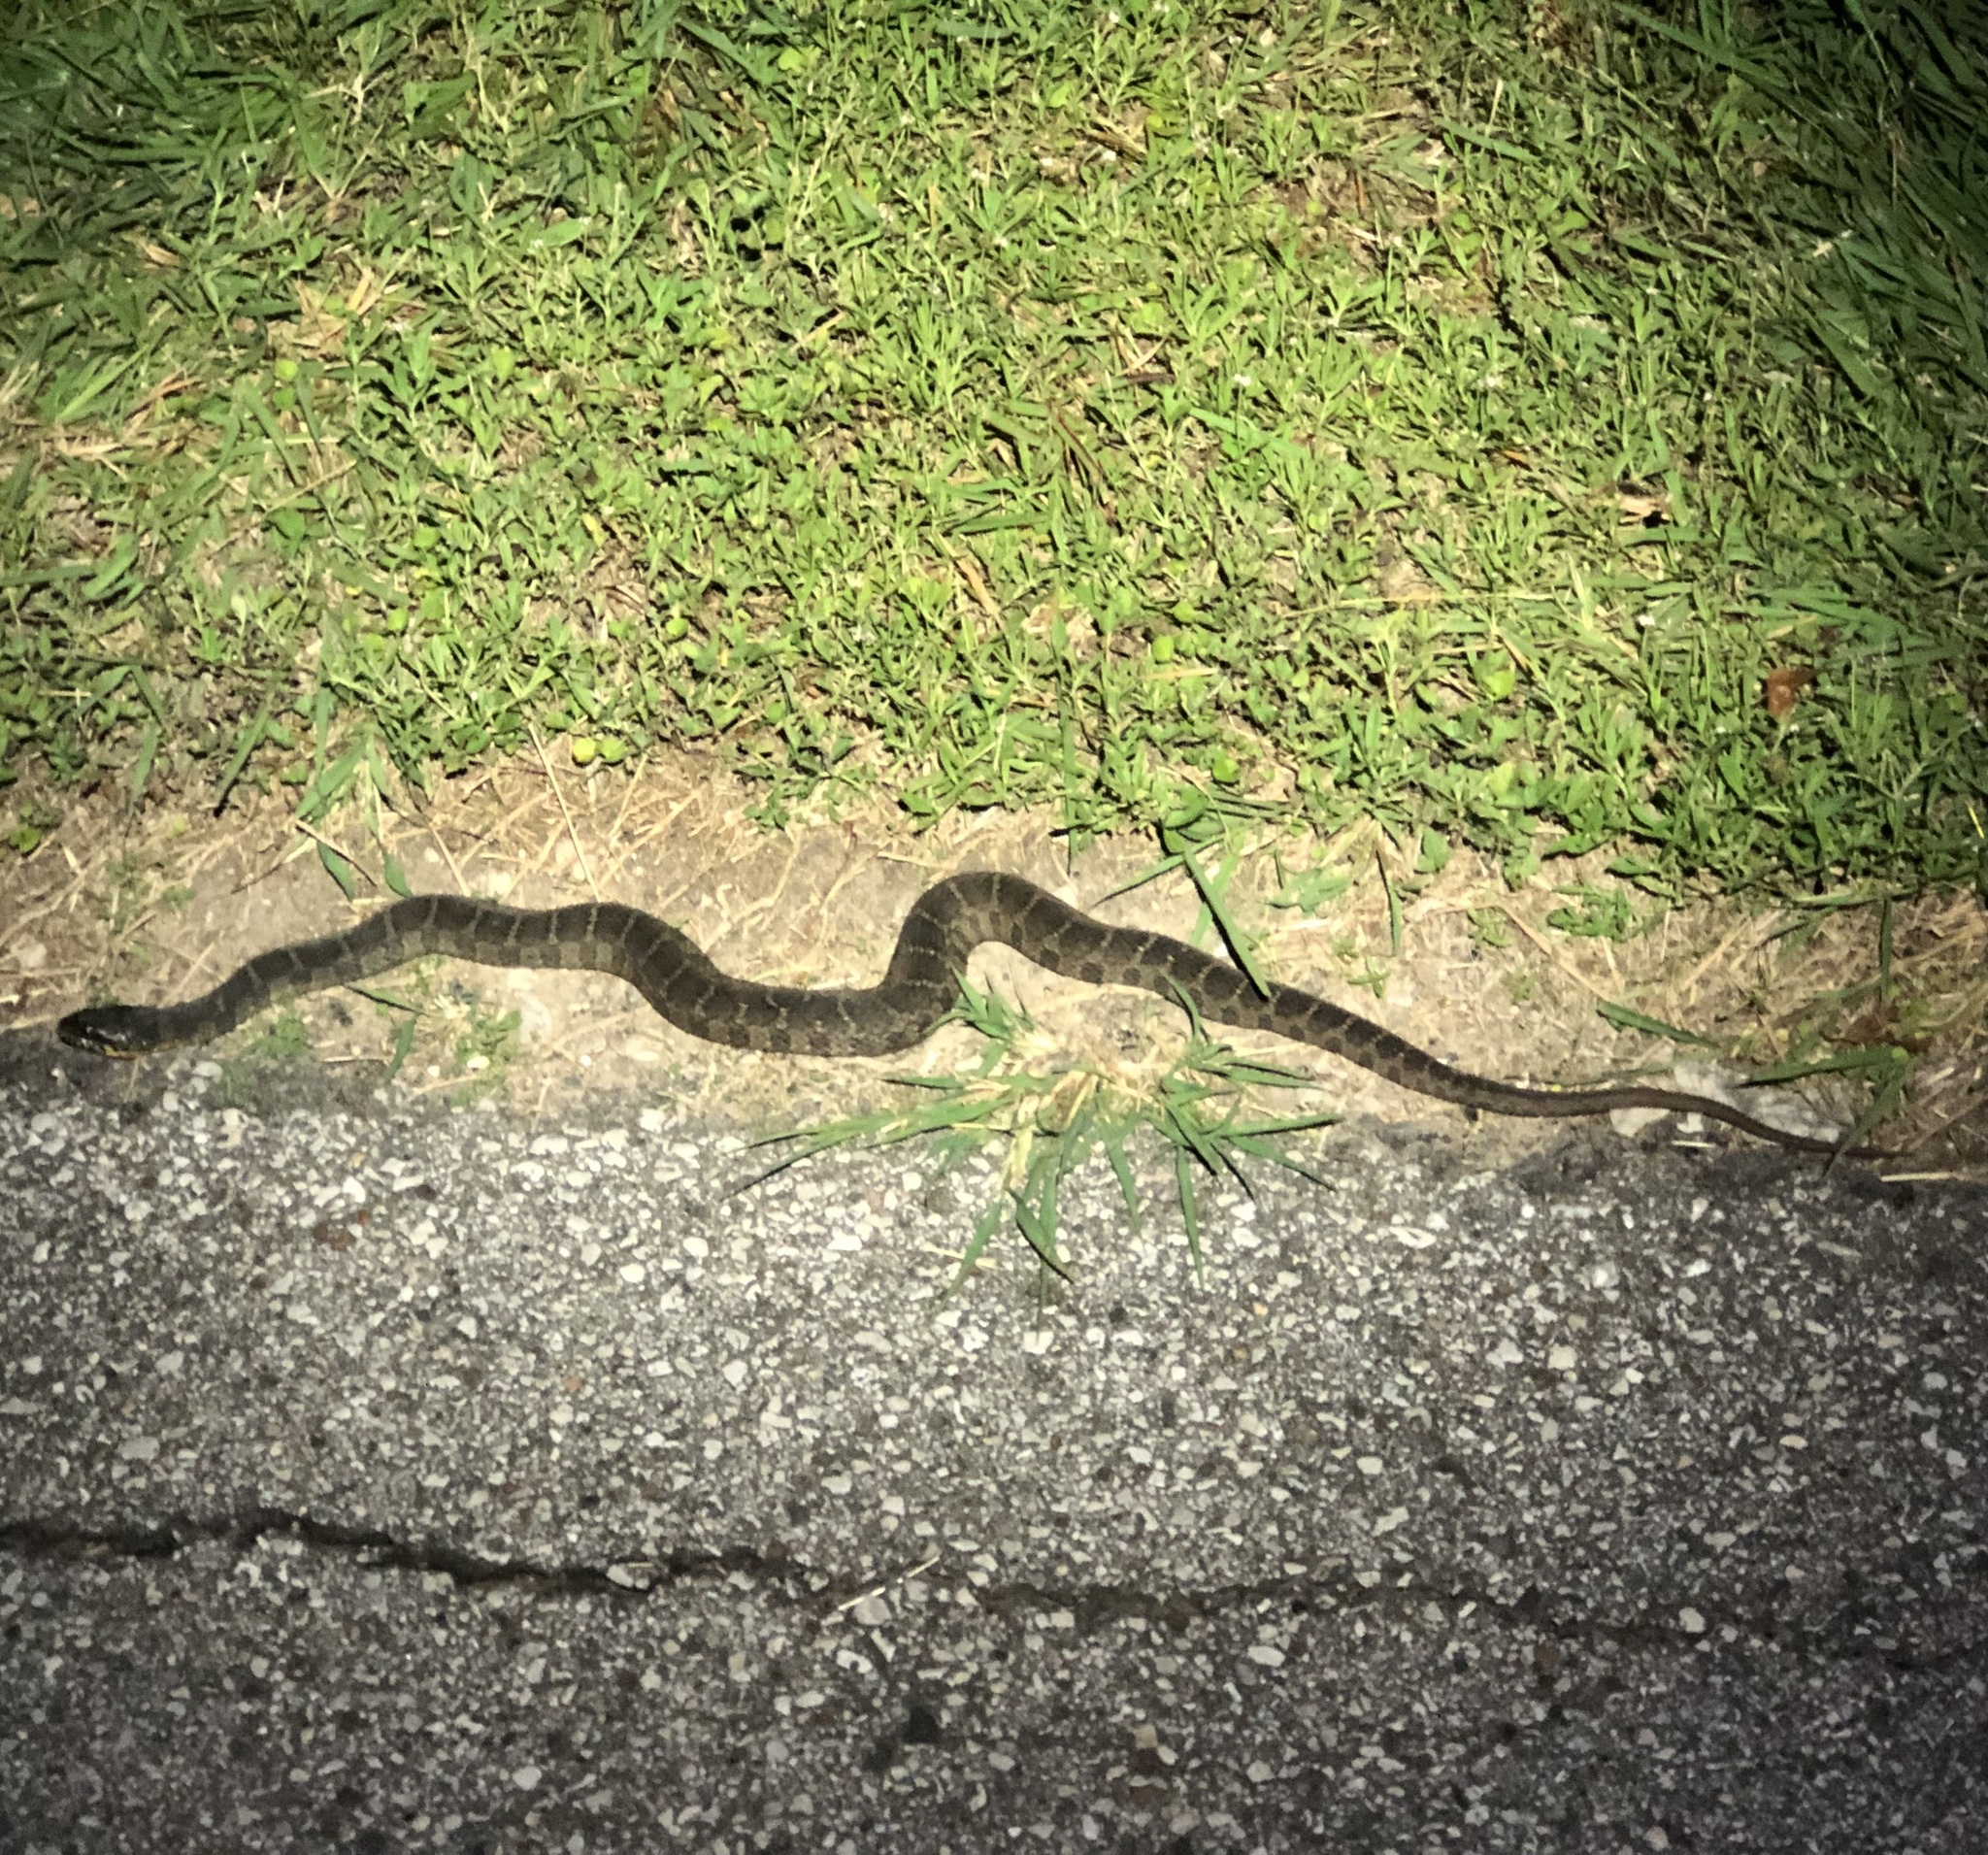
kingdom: Animalia
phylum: Chordata
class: Squamata
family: Colubridae
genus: Nerodia
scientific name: Nerodia erythrogaster
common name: Plainbelly water snake
